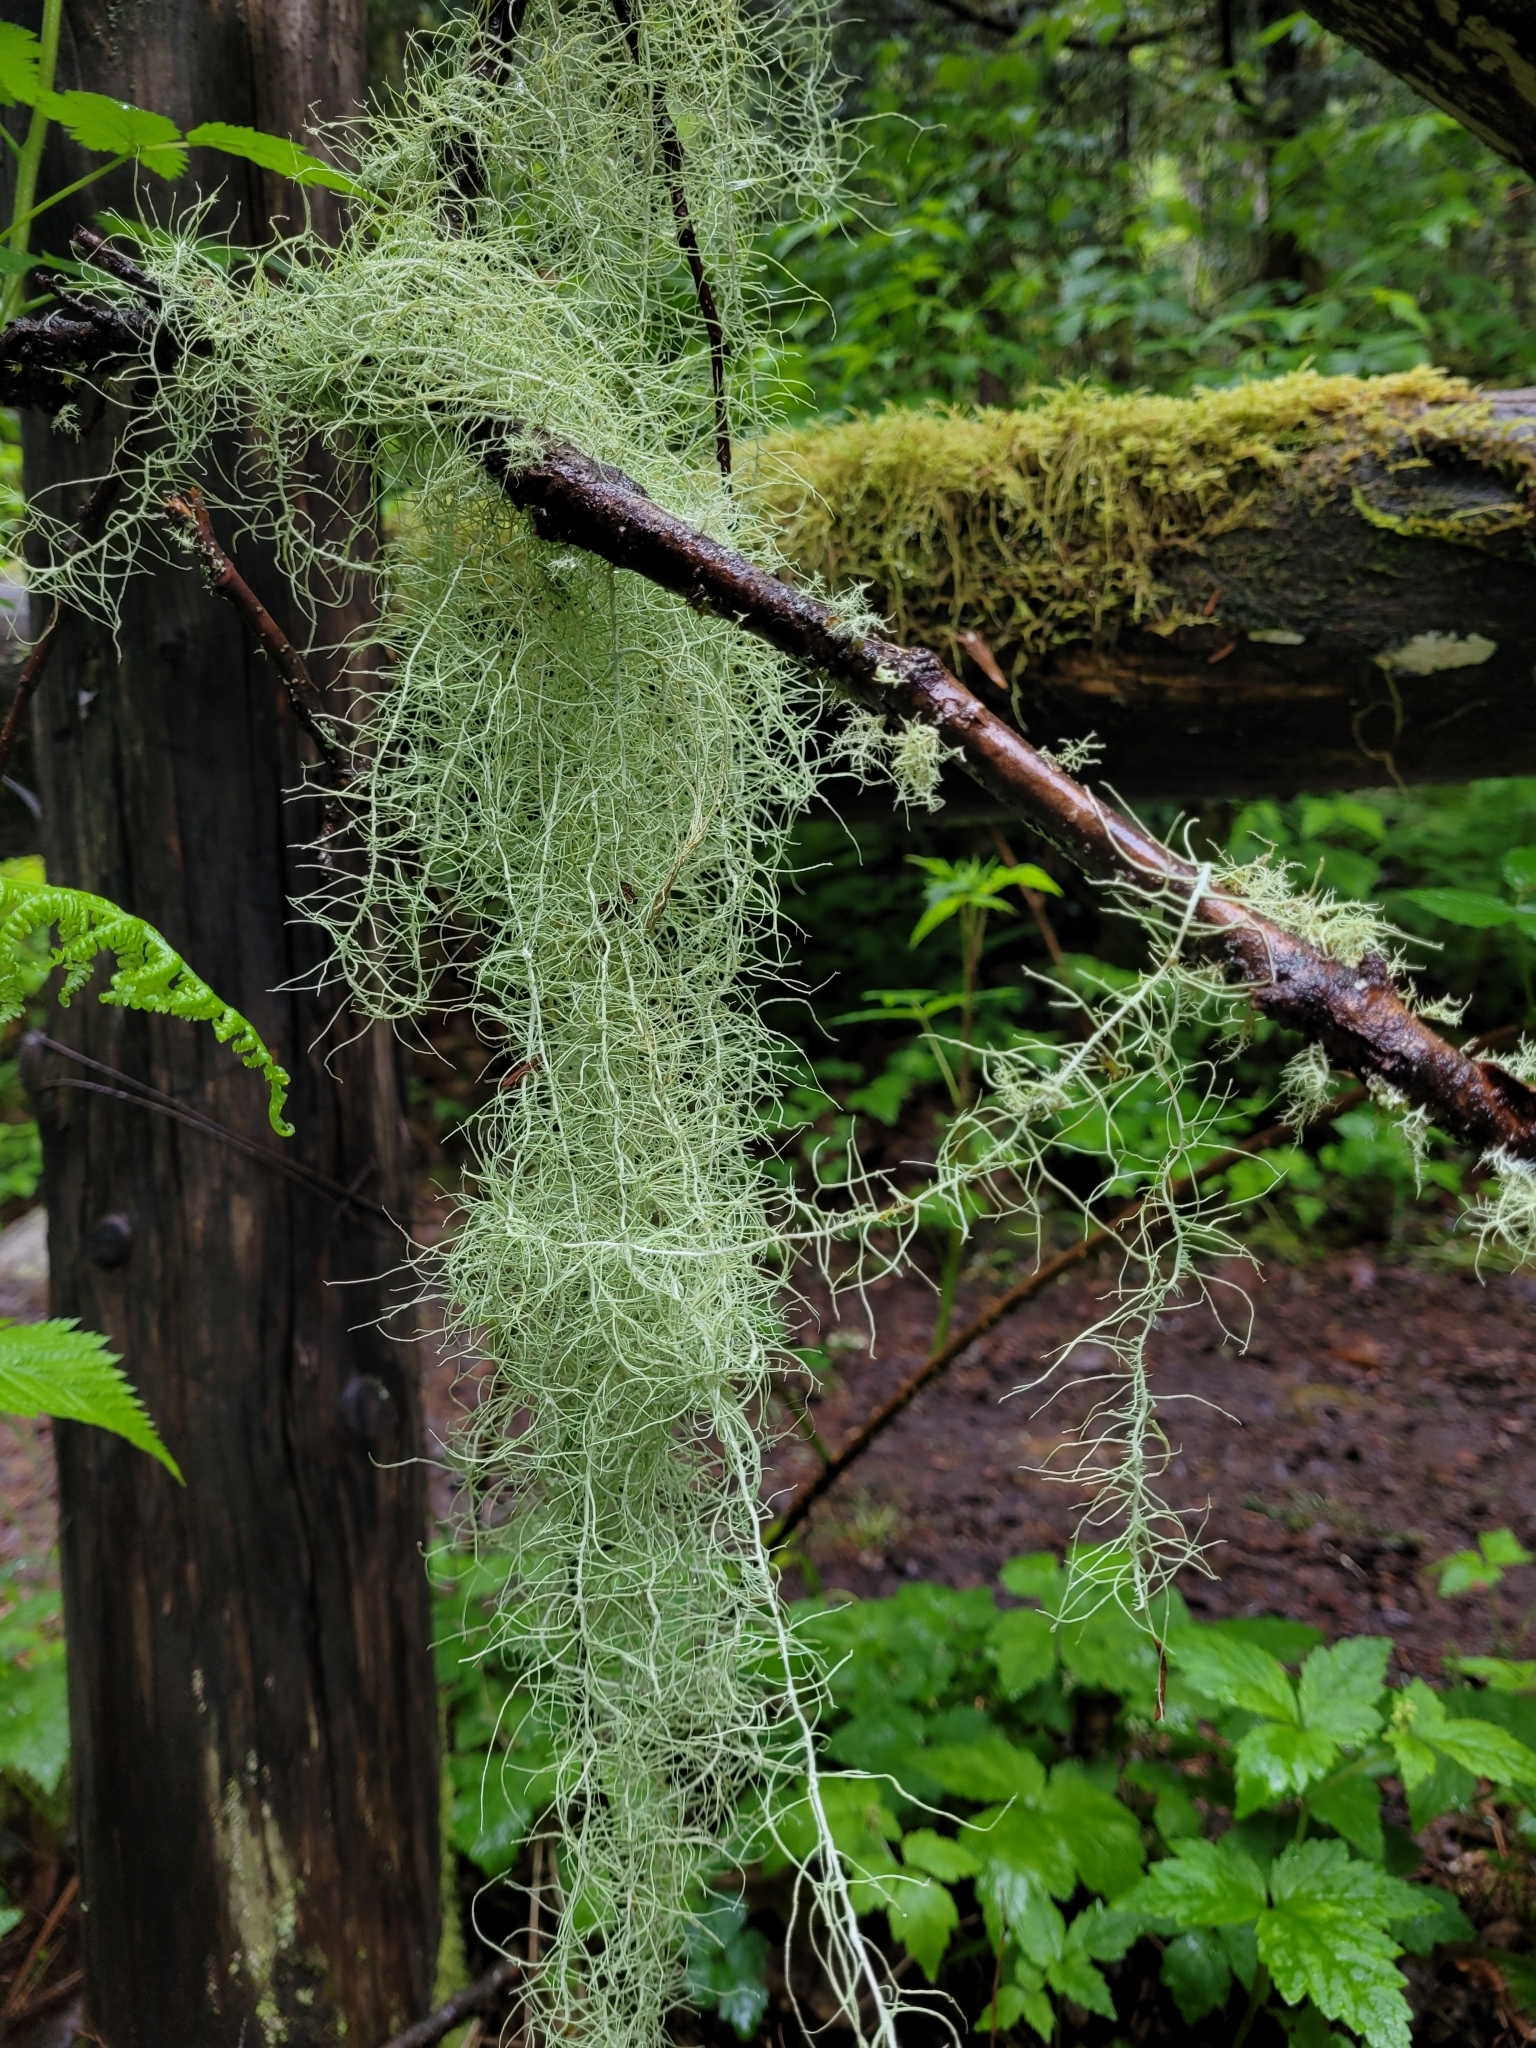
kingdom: Fungi
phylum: Ascomycota
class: Lecanoromycetes
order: Lecanorales
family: Parmeliaceae
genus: Dolichousnea
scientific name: Dolichousnea longissima
